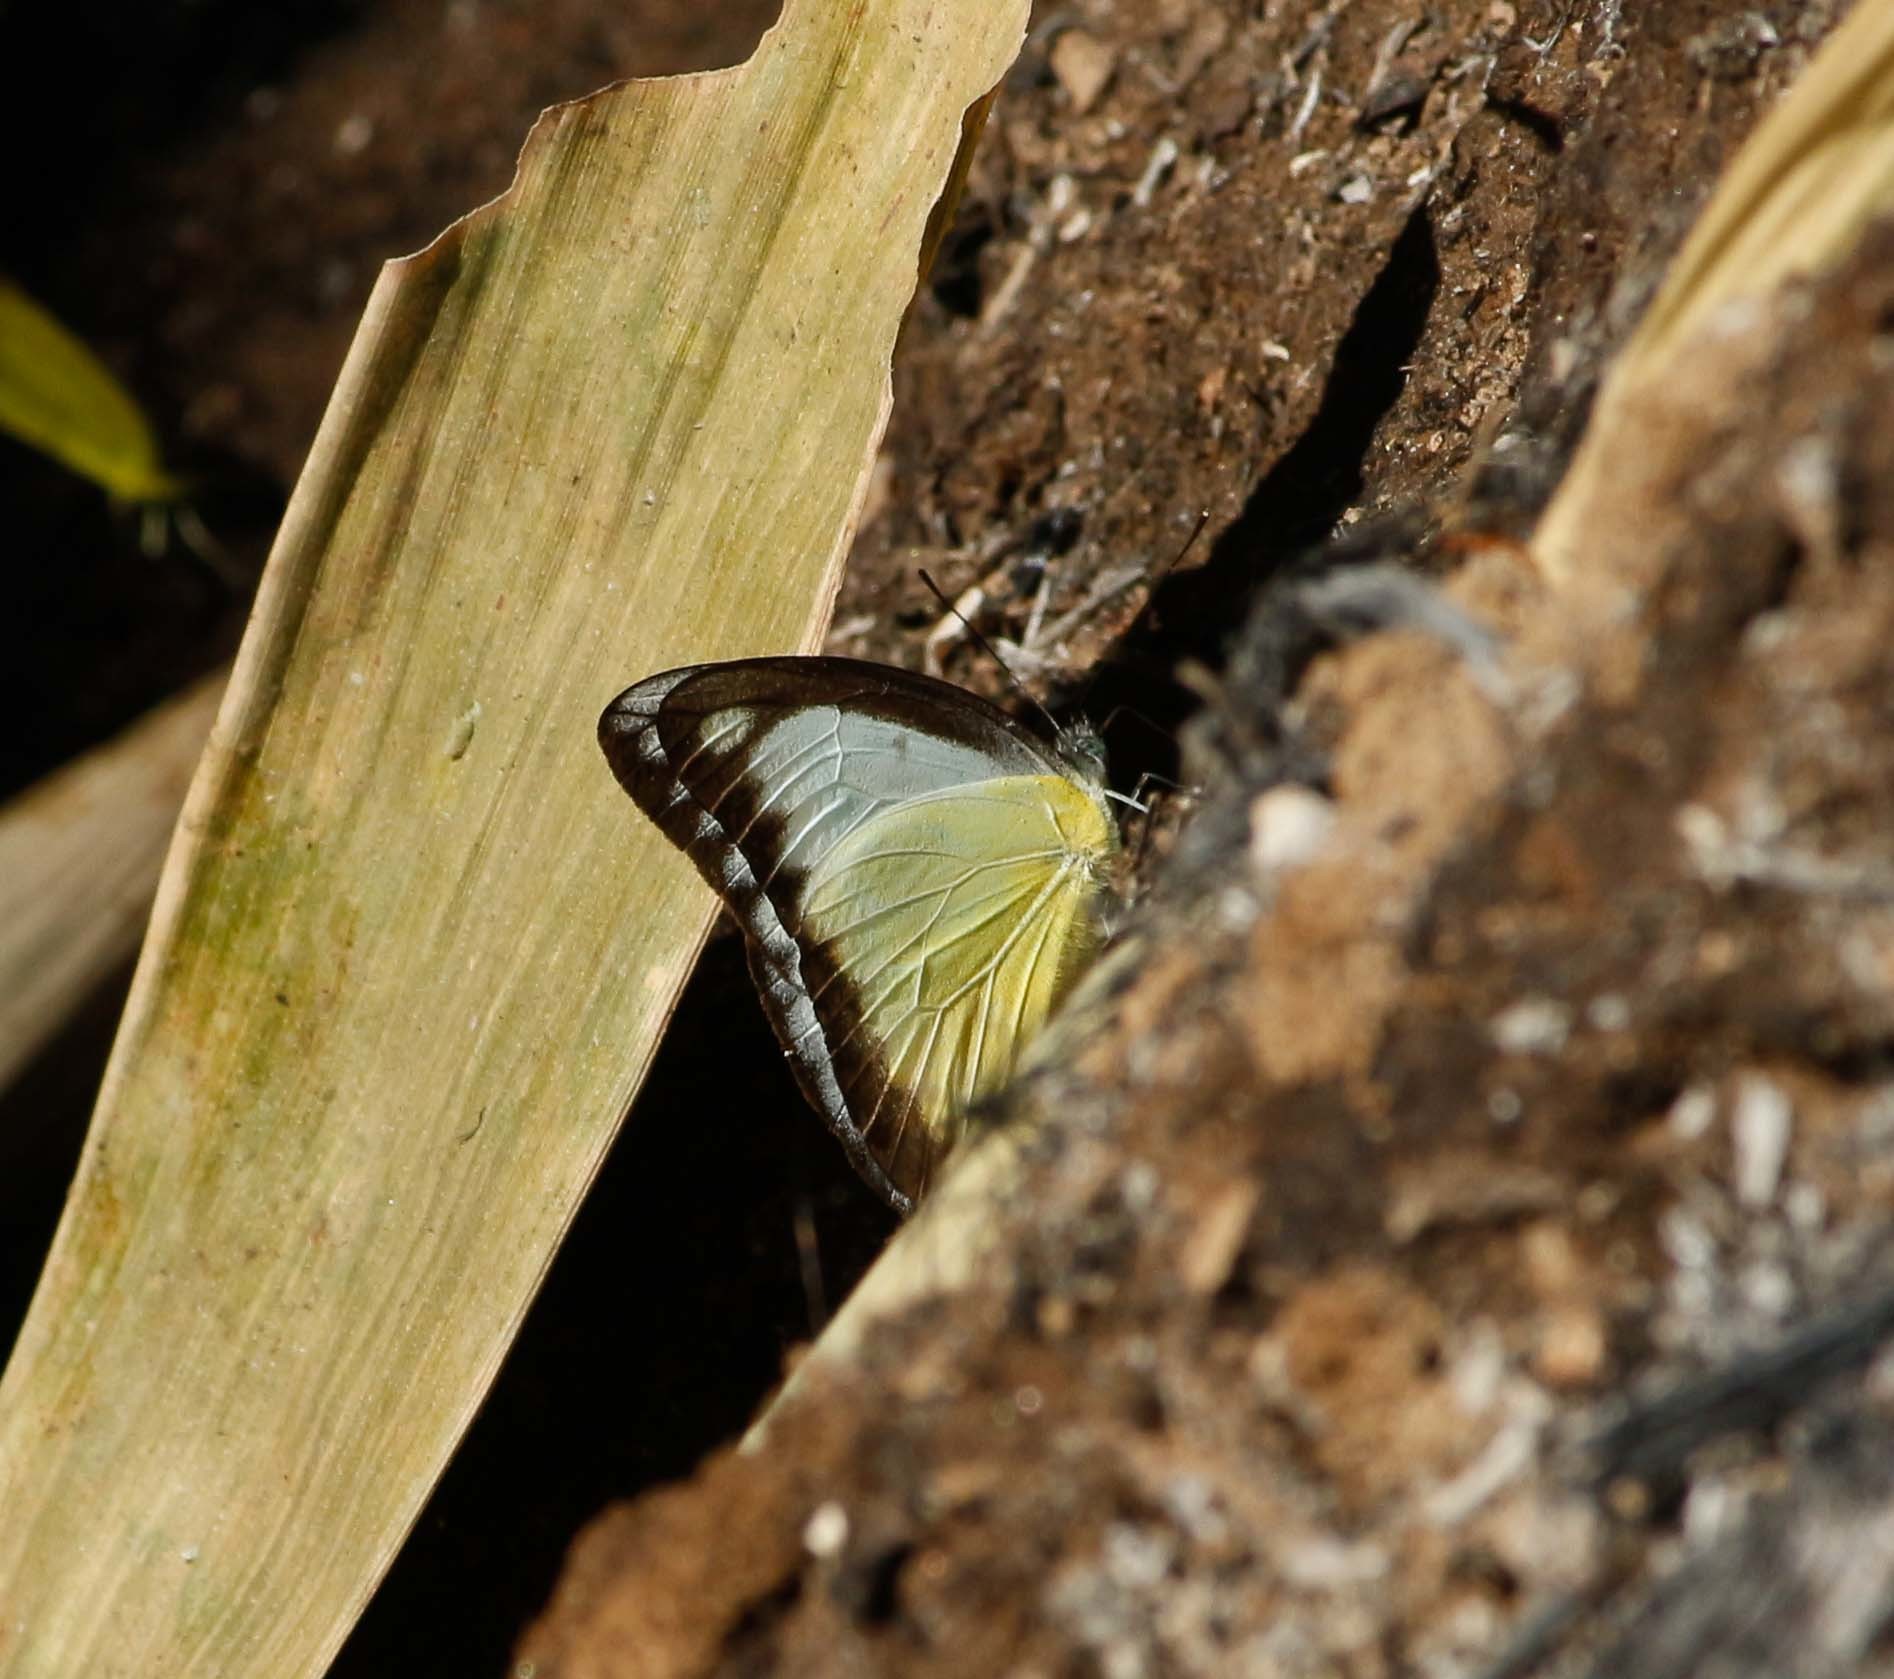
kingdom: Animalia
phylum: Arthropoda
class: Insecta
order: Lepidoptera
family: Pieridae
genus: Appias
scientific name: Appias lyncida
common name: Chocolate albatross
